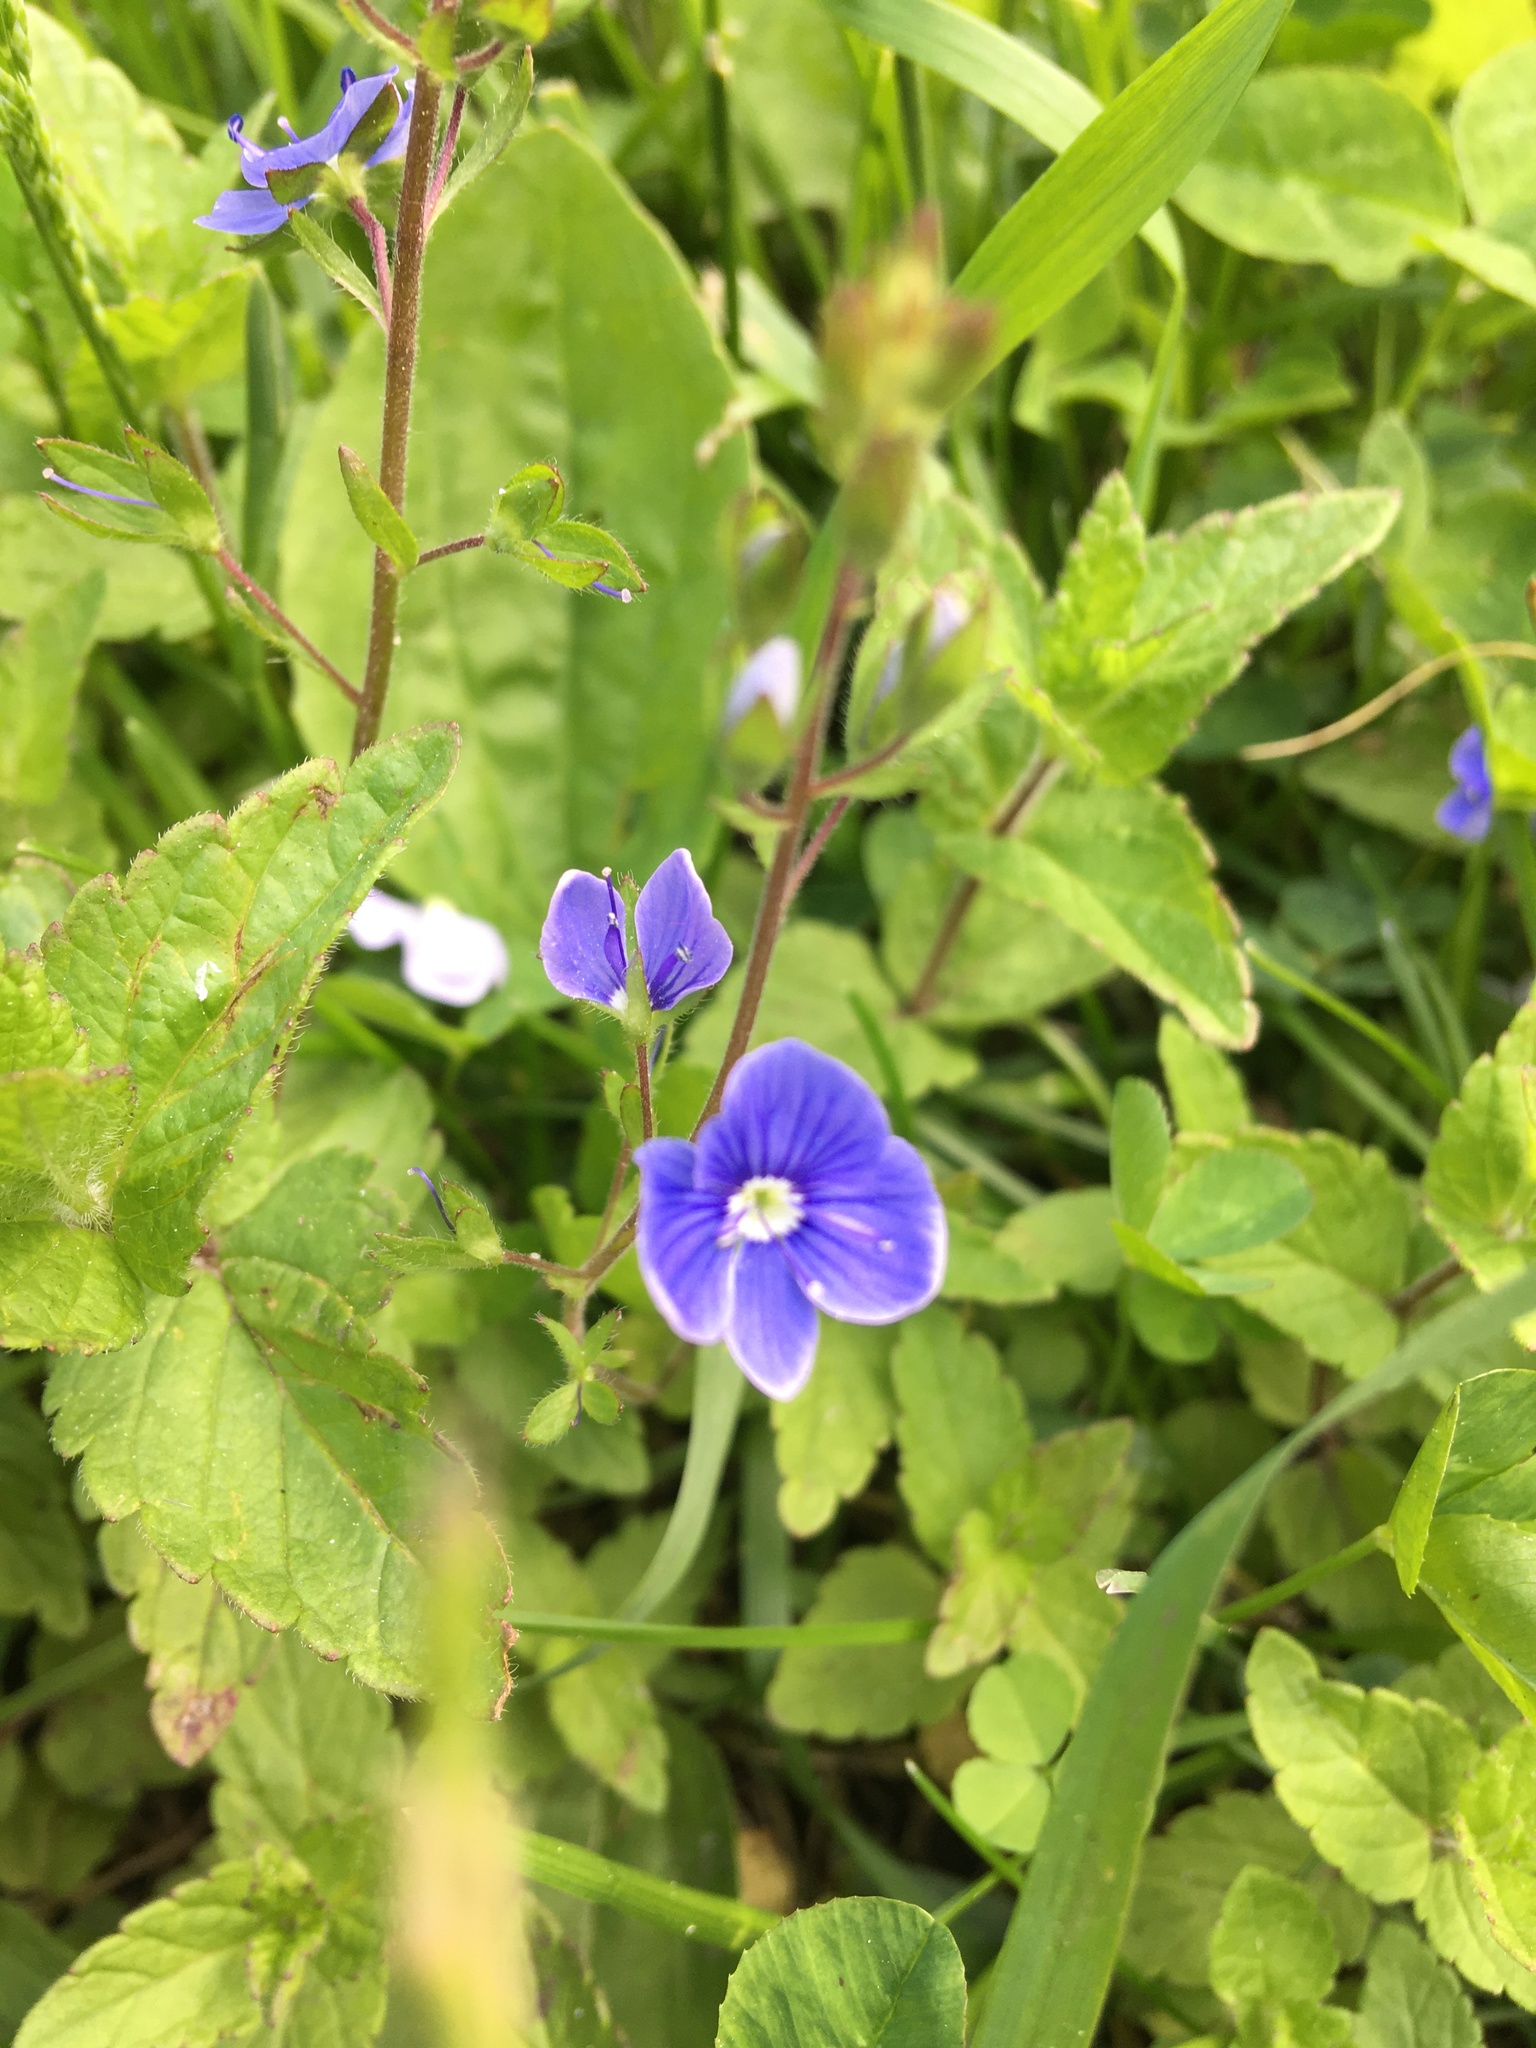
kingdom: Plantae
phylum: Tracheophyta
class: Magnoliopsida
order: Lamiales
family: Plantaginaceae
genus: Veronica
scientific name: Veronica chamaedrys
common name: Germander speedwell
